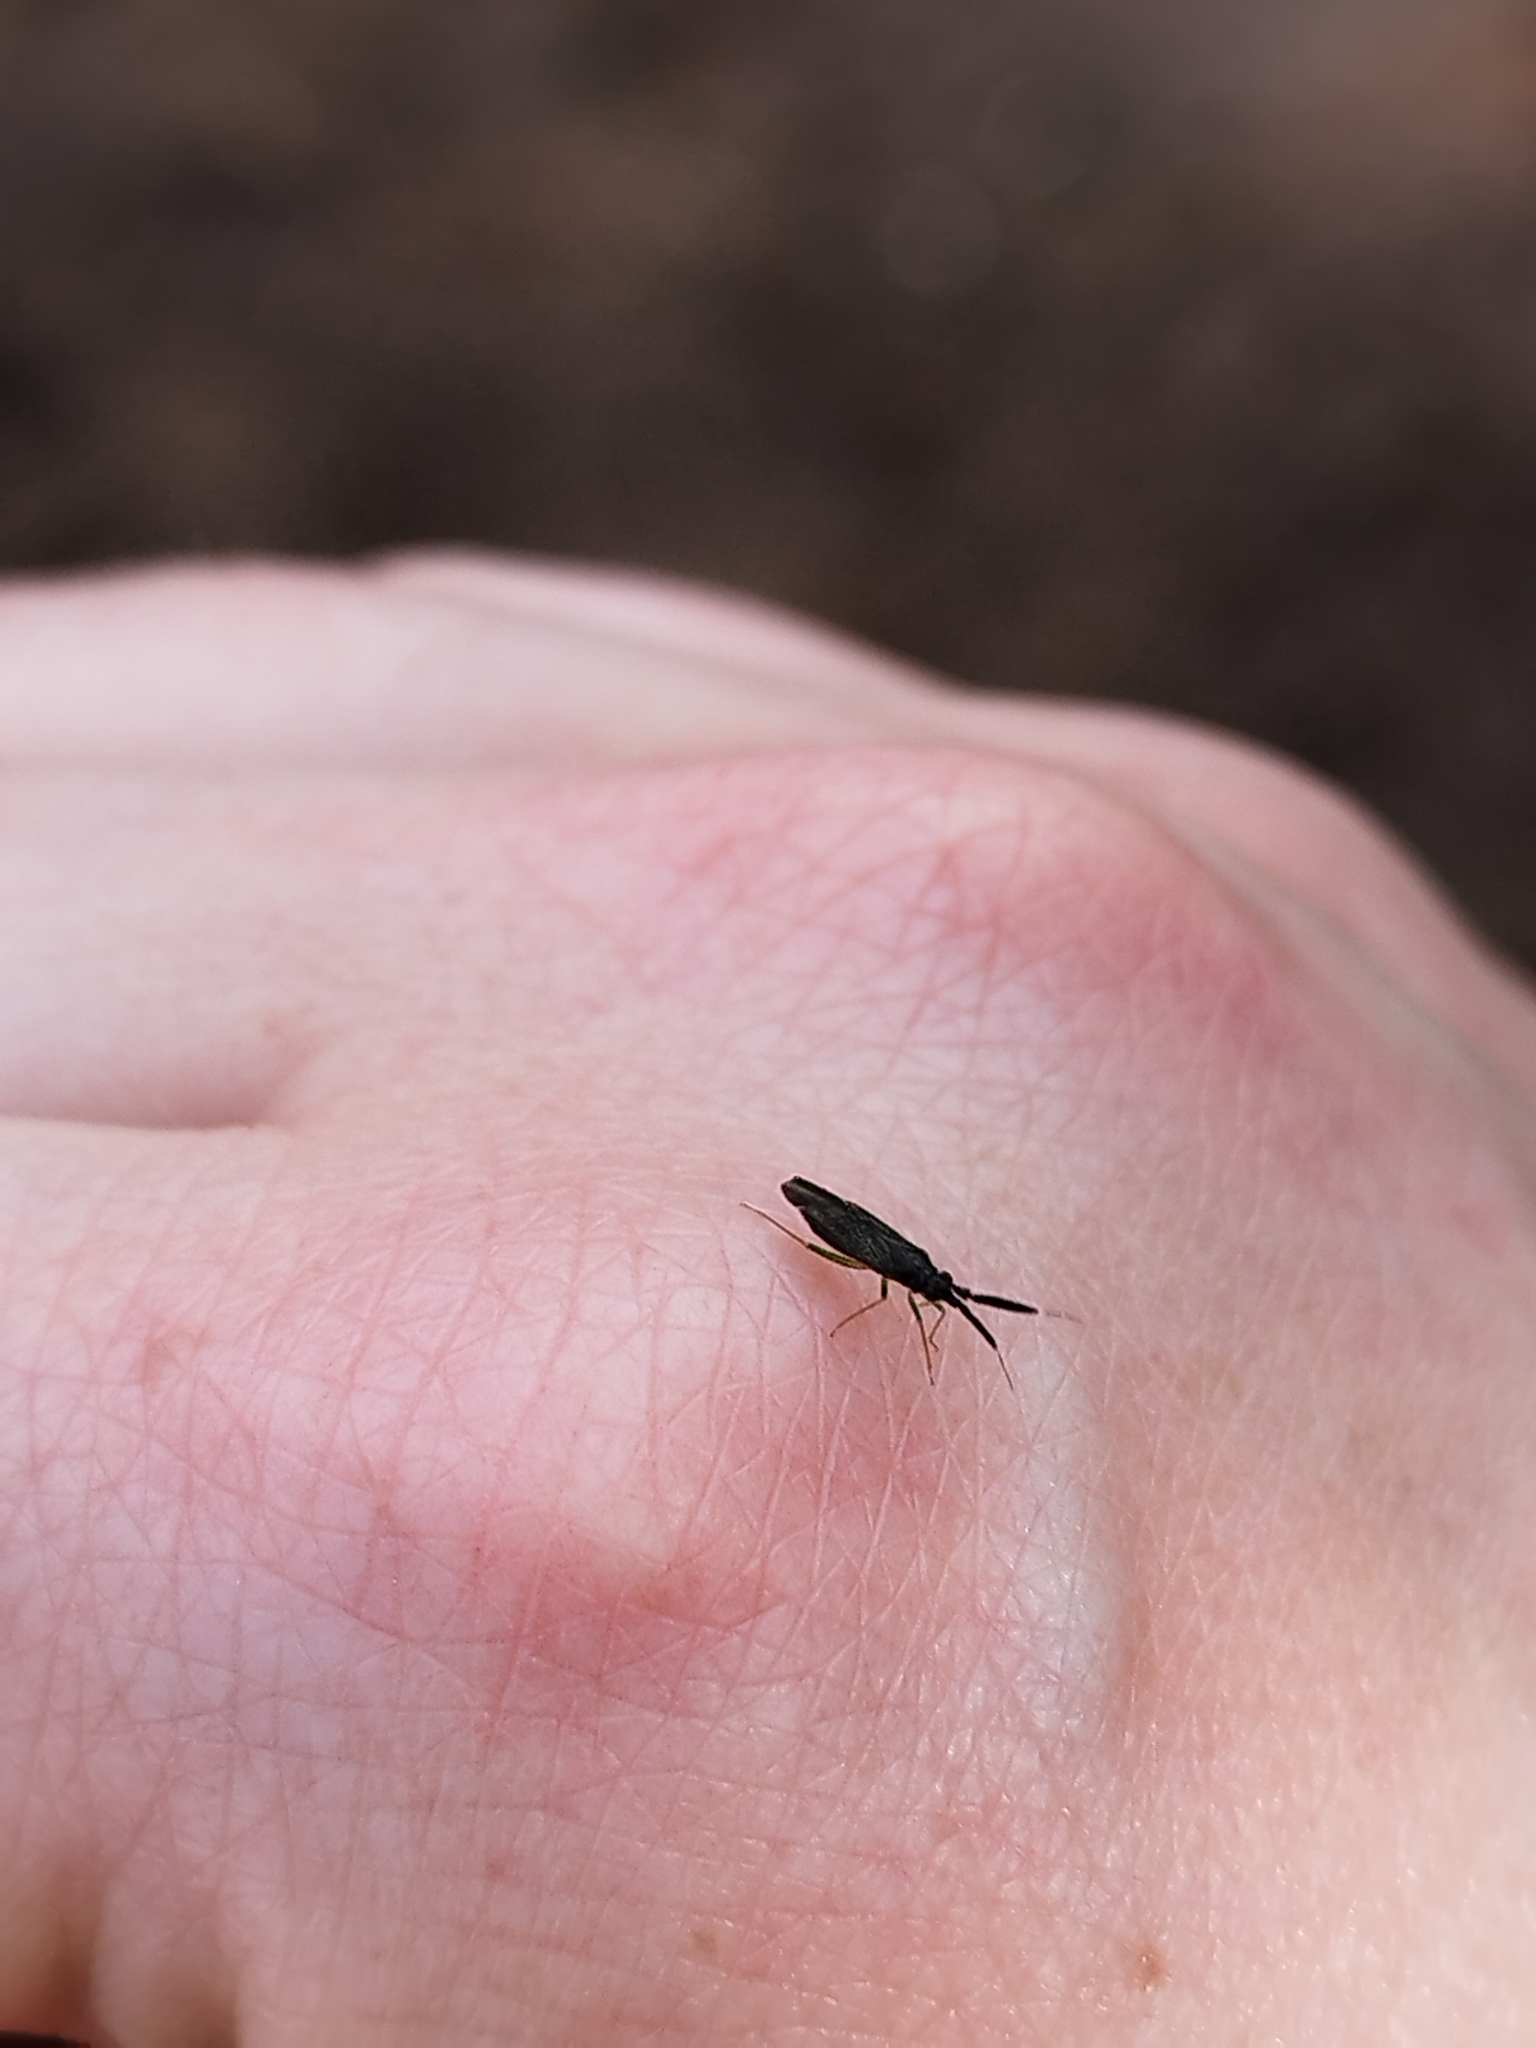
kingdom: Animalia
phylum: Arthropoda
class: Insecta
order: Hemiptera
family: Miridae
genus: Heterotoma
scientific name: Heterotoma planicornis
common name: Plant bug
